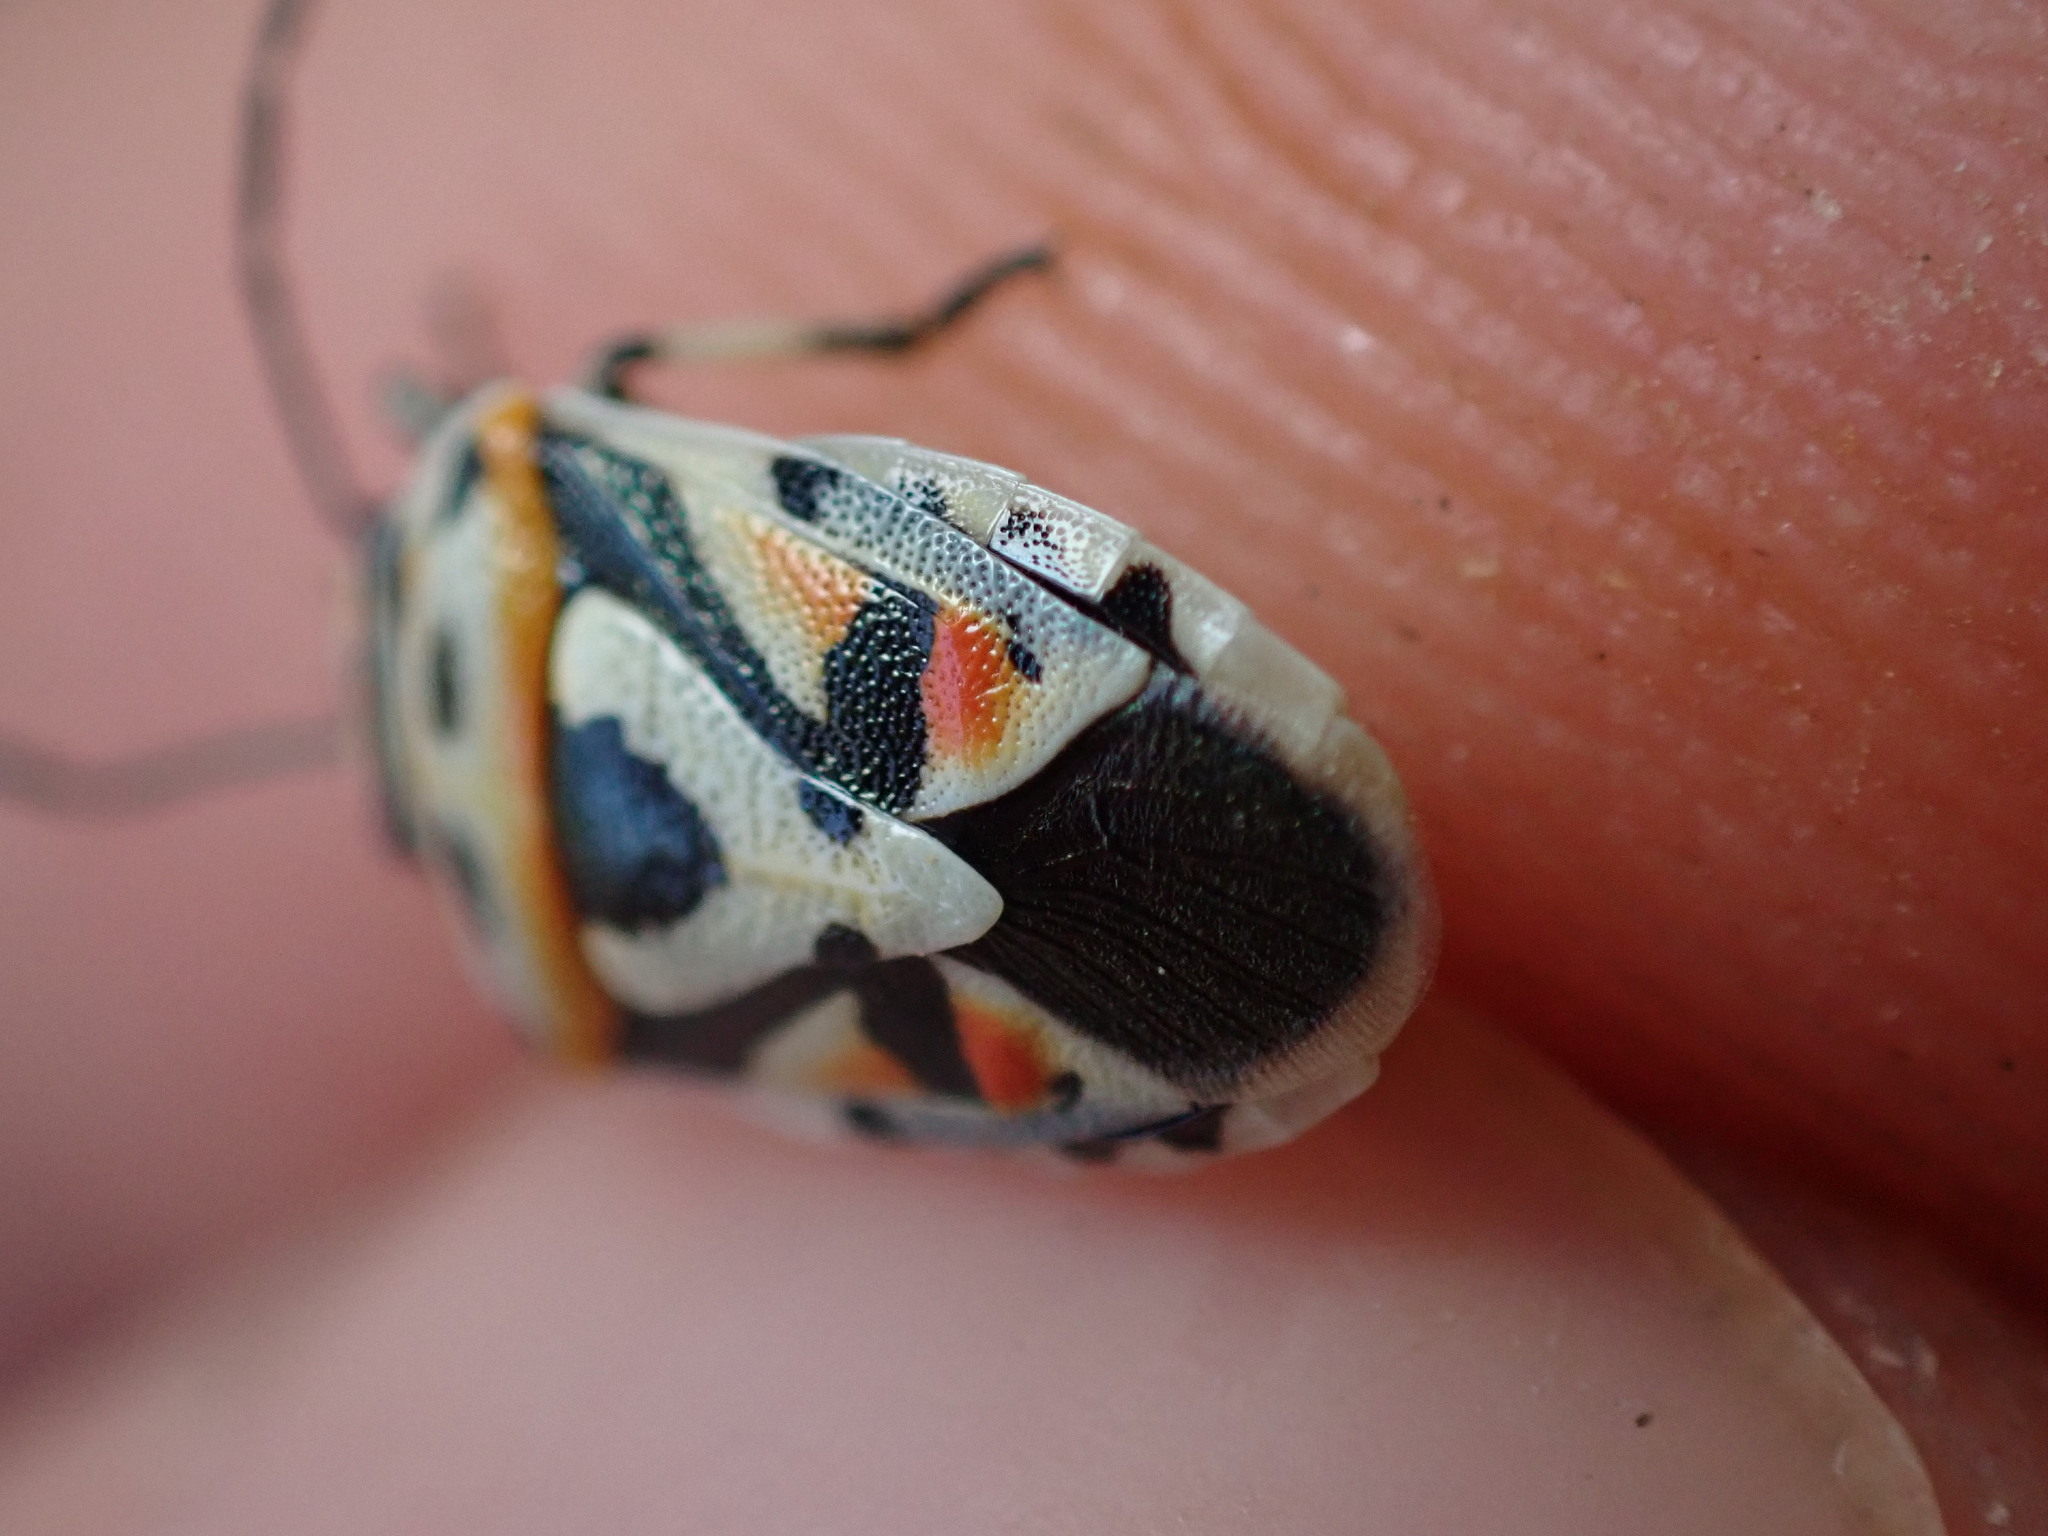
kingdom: Animalia
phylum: Arthropoda
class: Insecta
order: Hemiptera
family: Pentatomidae
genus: Eurydema
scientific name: Eurydema ornata
